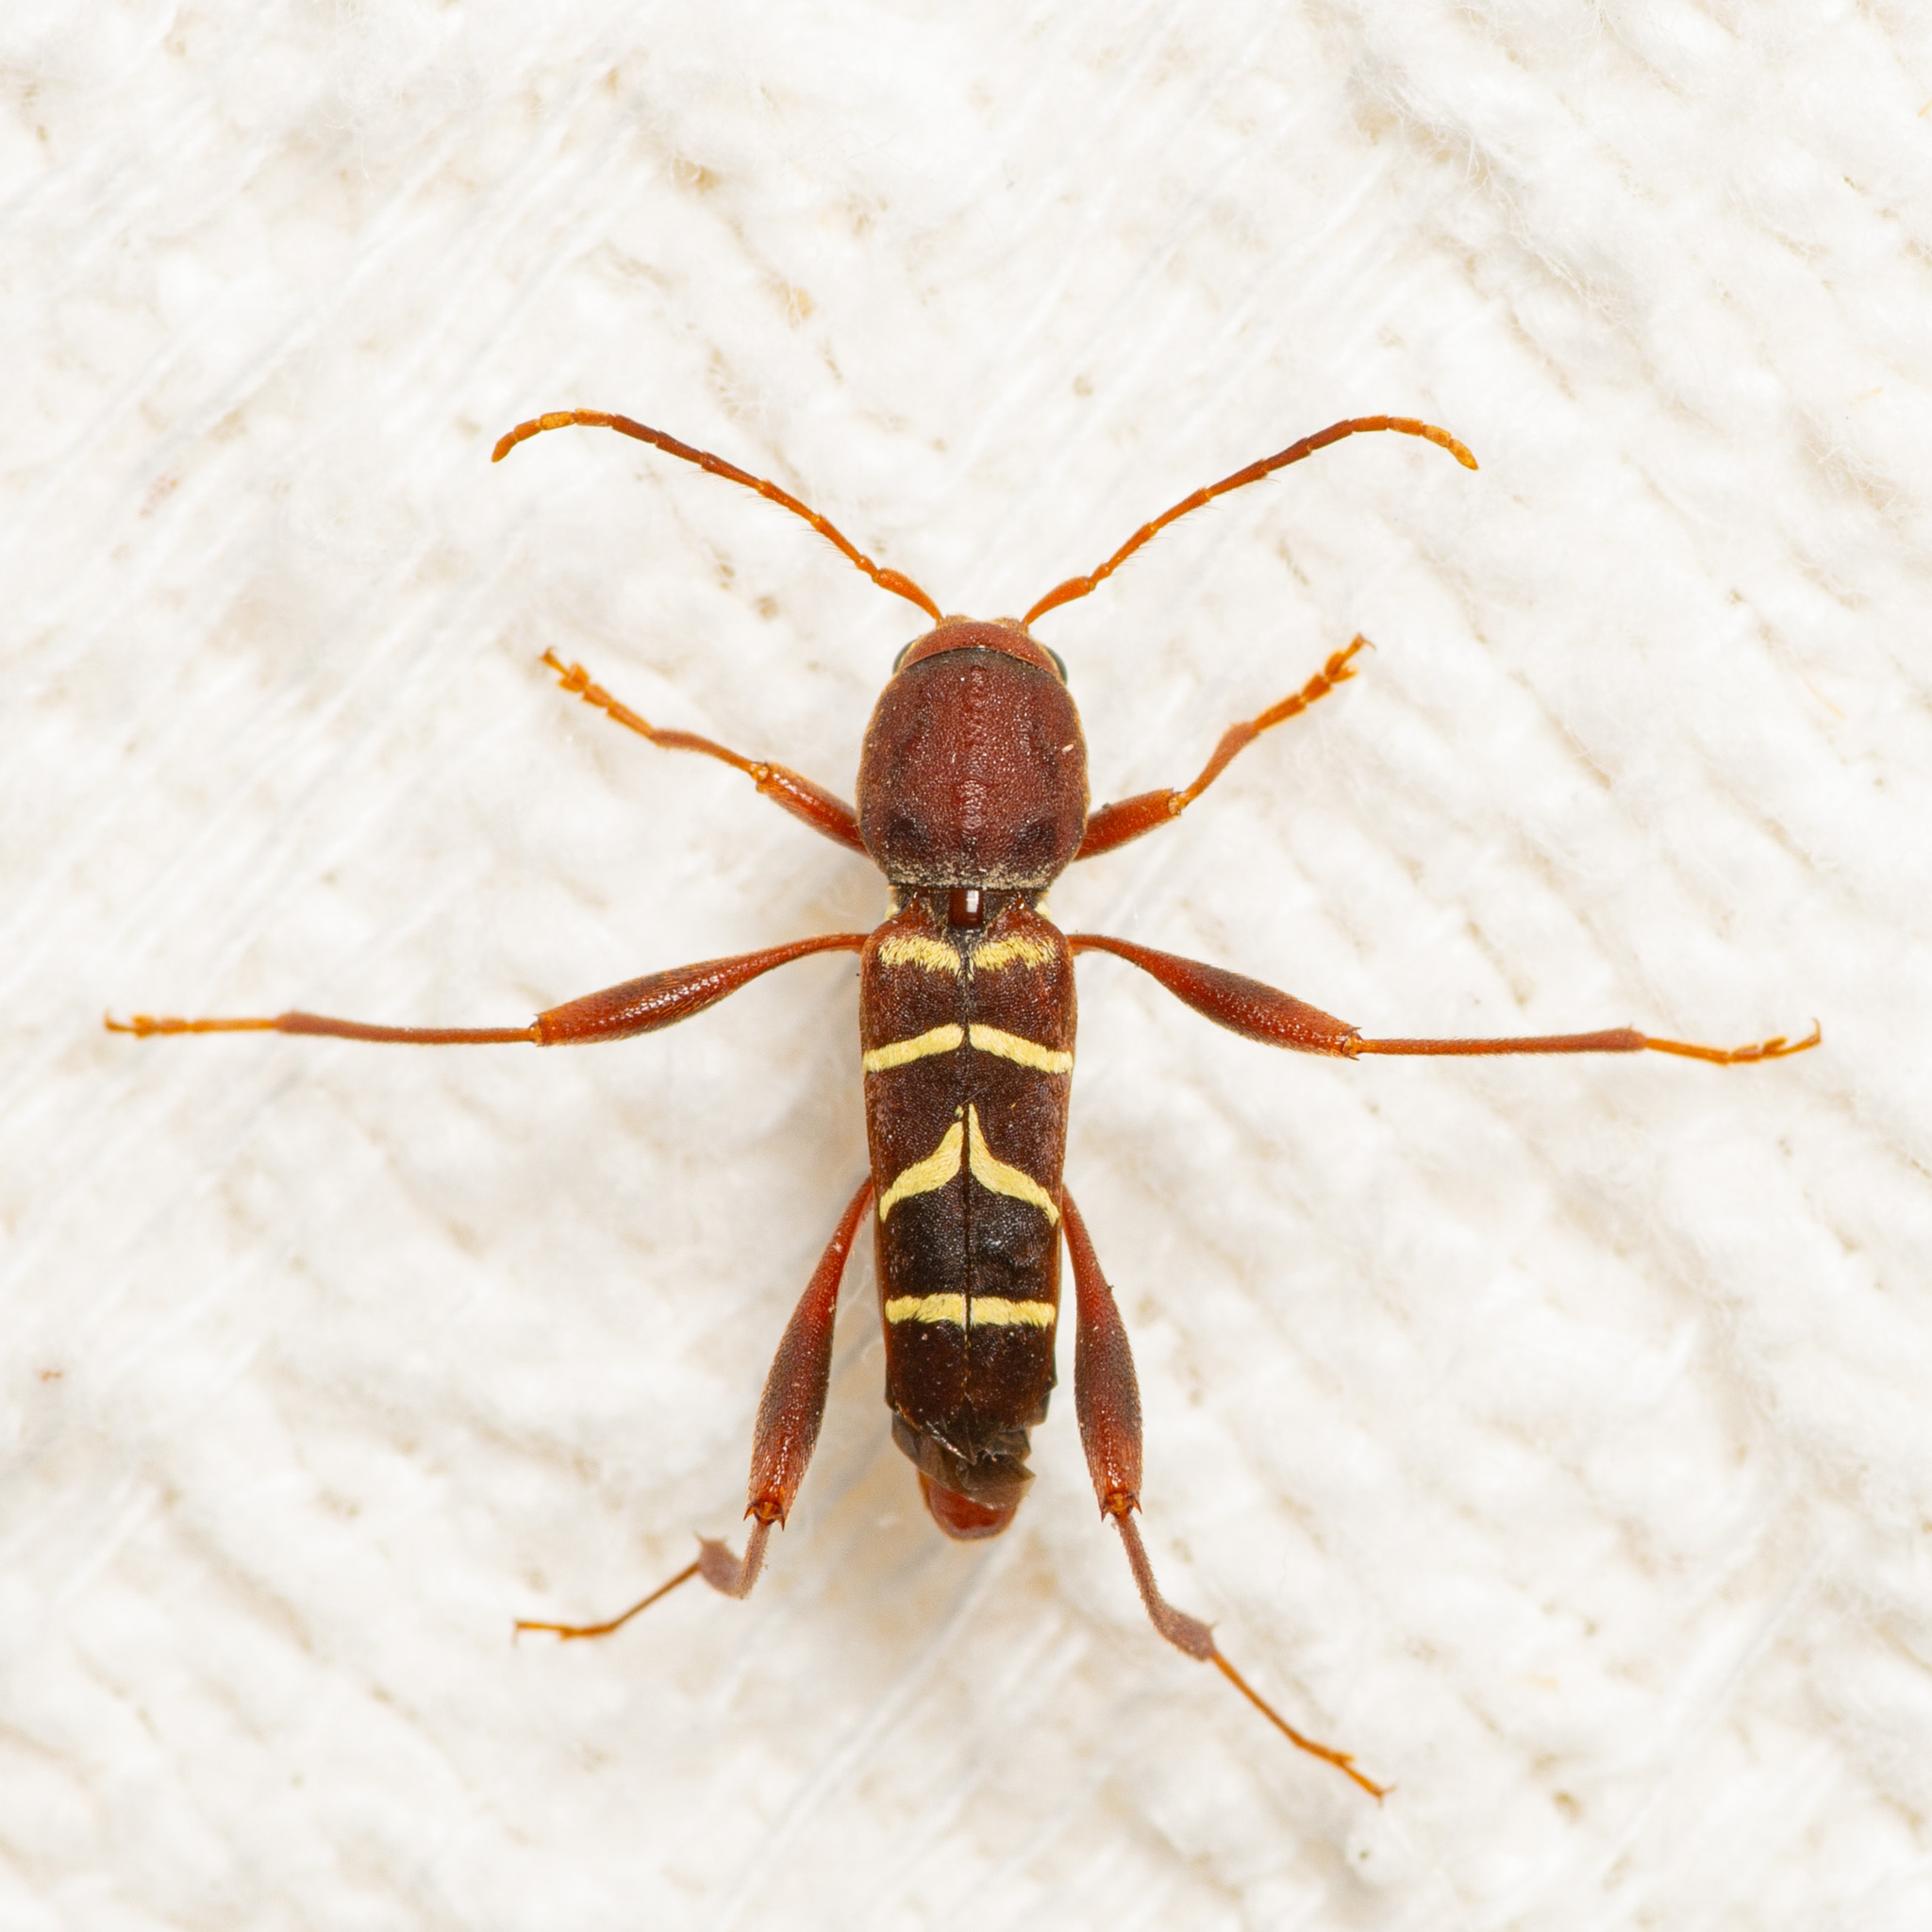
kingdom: Animalia
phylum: Arthropoda
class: Insecta
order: Coleoptera
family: Cerambycidae
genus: Neoclytus
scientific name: Neoclytus acuminatus
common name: Read-headed ash borer
